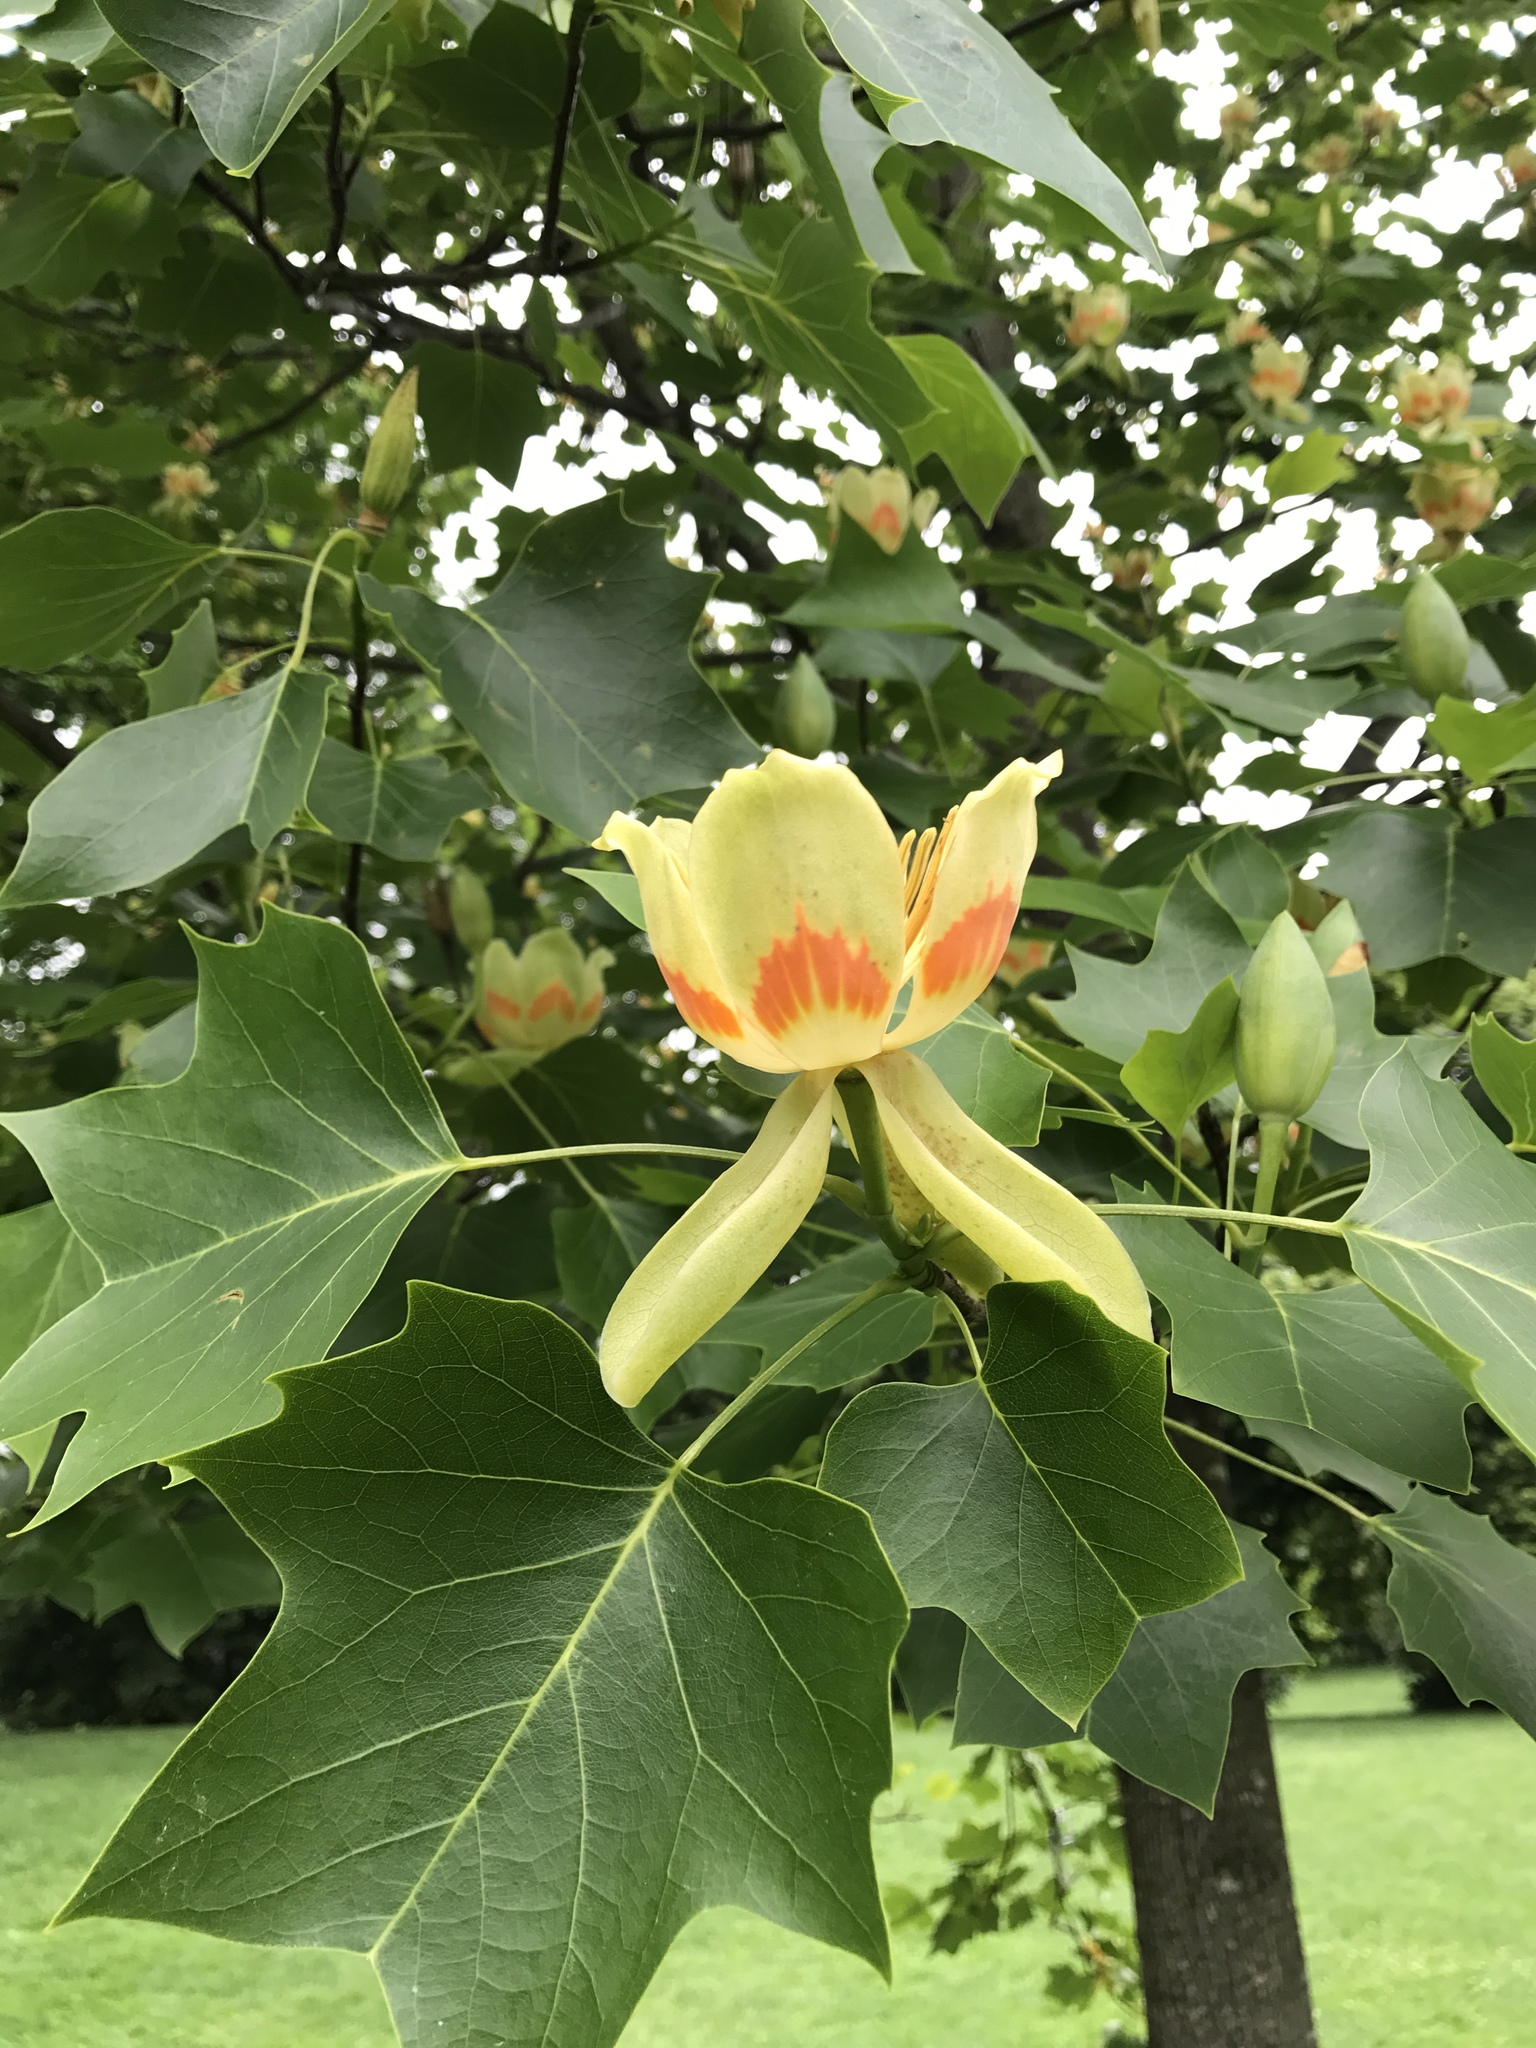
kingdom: Plantae
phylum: Tracheophyta
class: Magnoliopsida
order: Magnoliales
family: Magnoliaceae
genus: Liriodendron
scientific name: Liriodendron tulipifera
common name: Tulip tree
